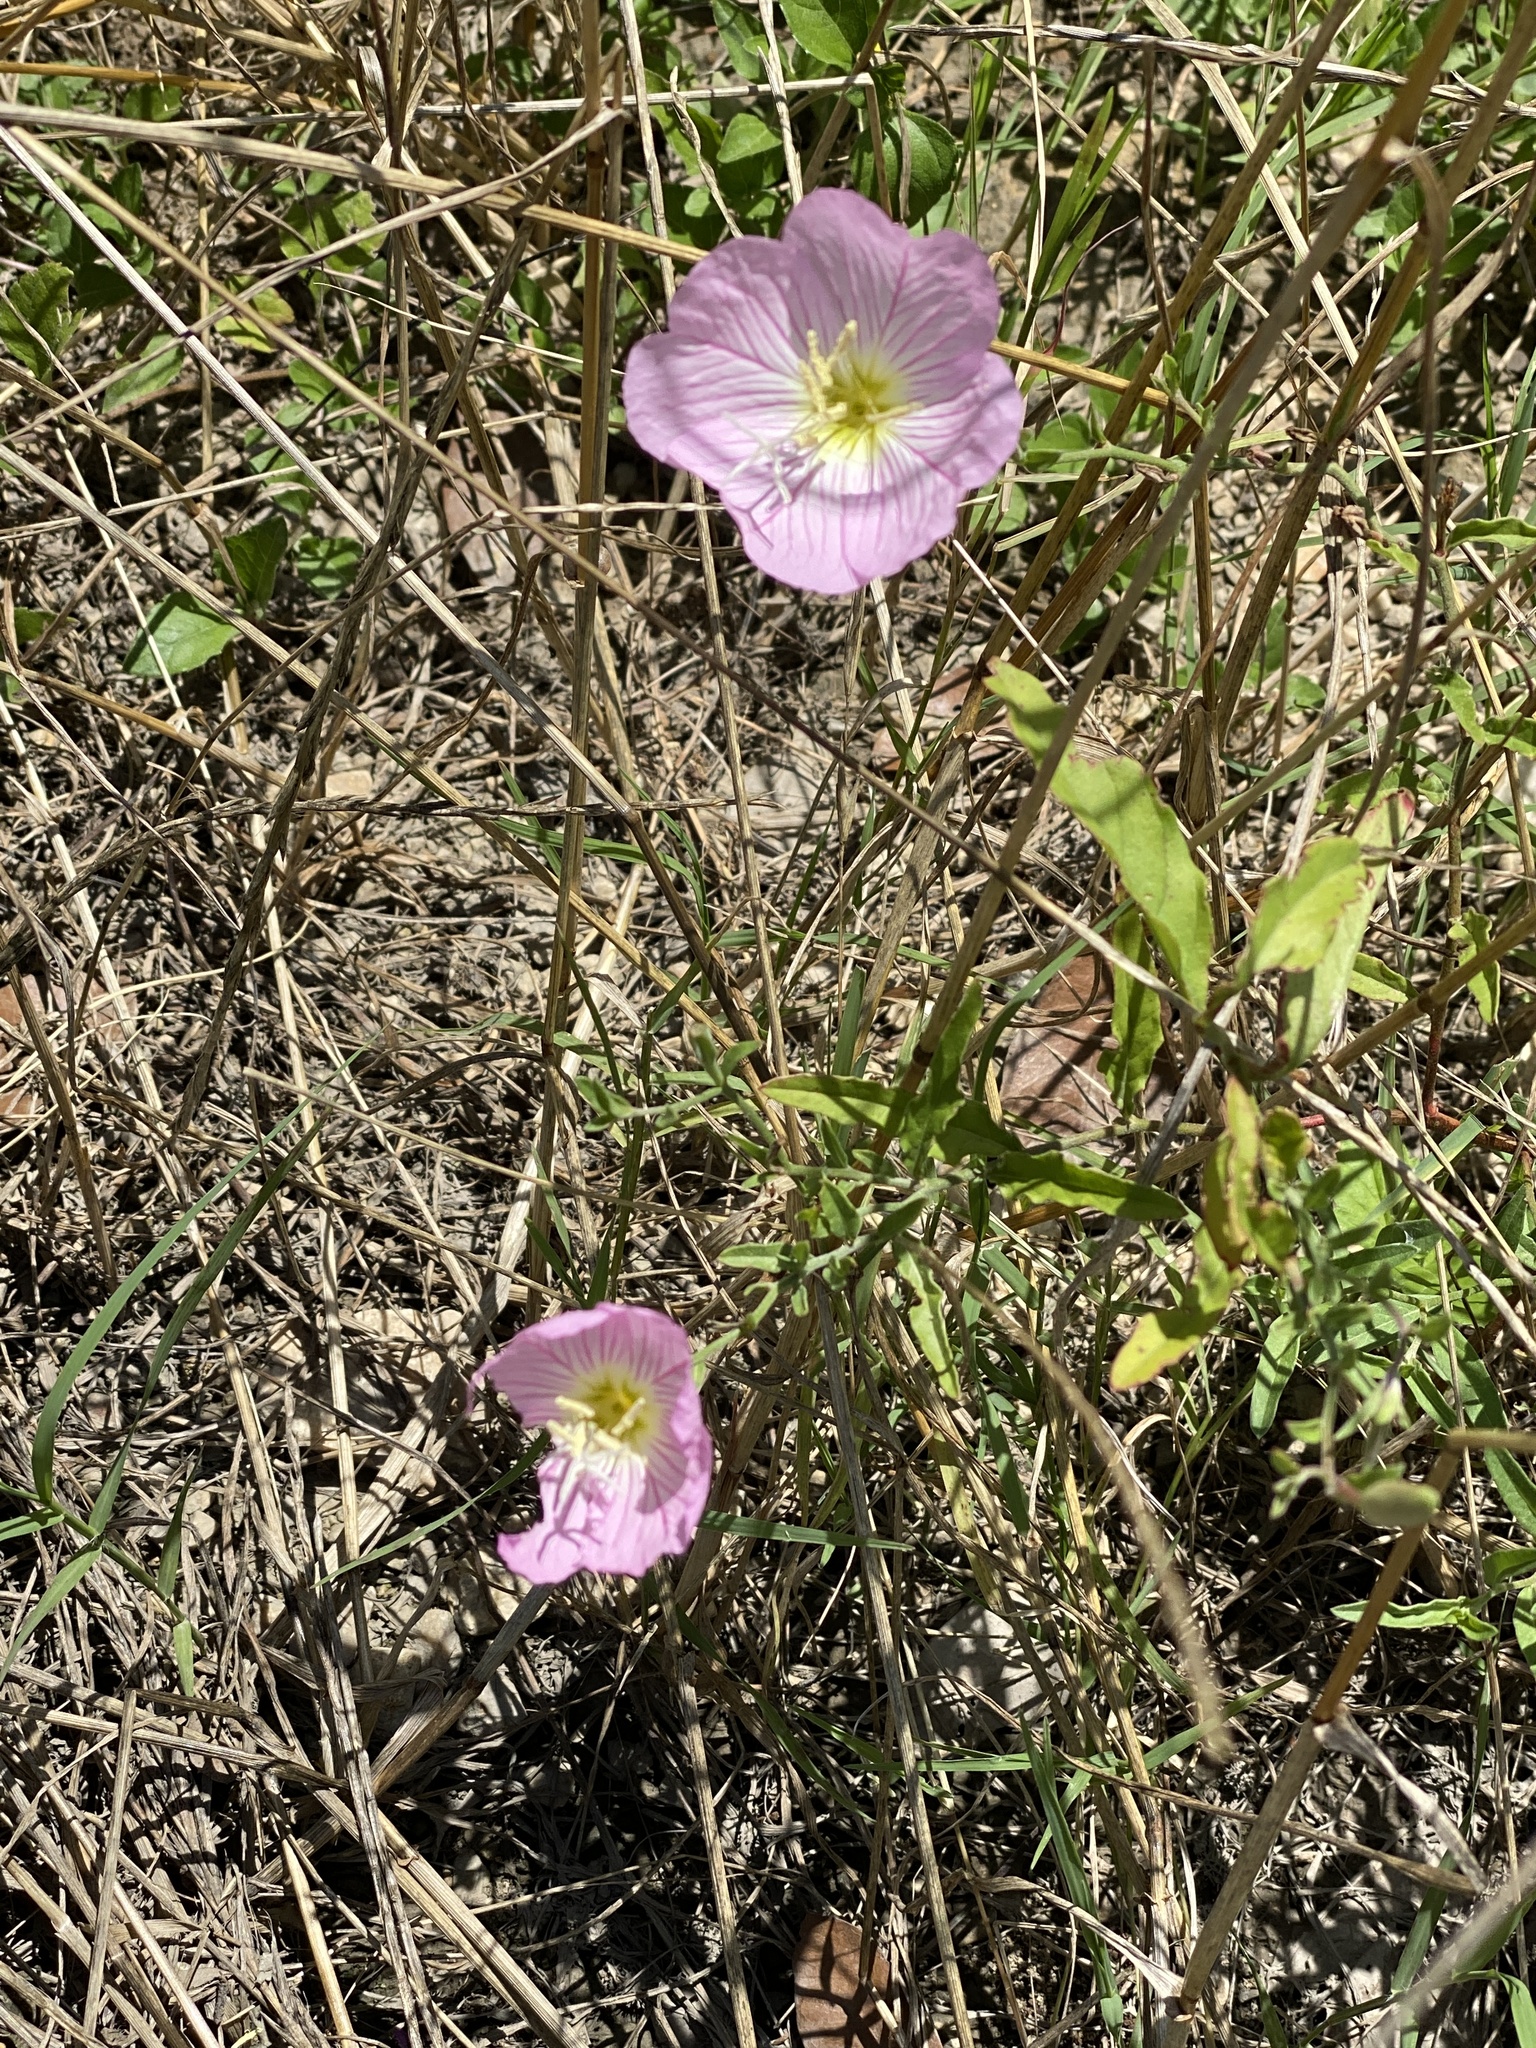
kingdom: Plantae
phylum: Tracheophyta
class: Magnoliopsida
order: Myrtales
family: Onagraceae
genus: Oenothera
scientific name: Oenothera speciosa
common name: White evening-primrose
